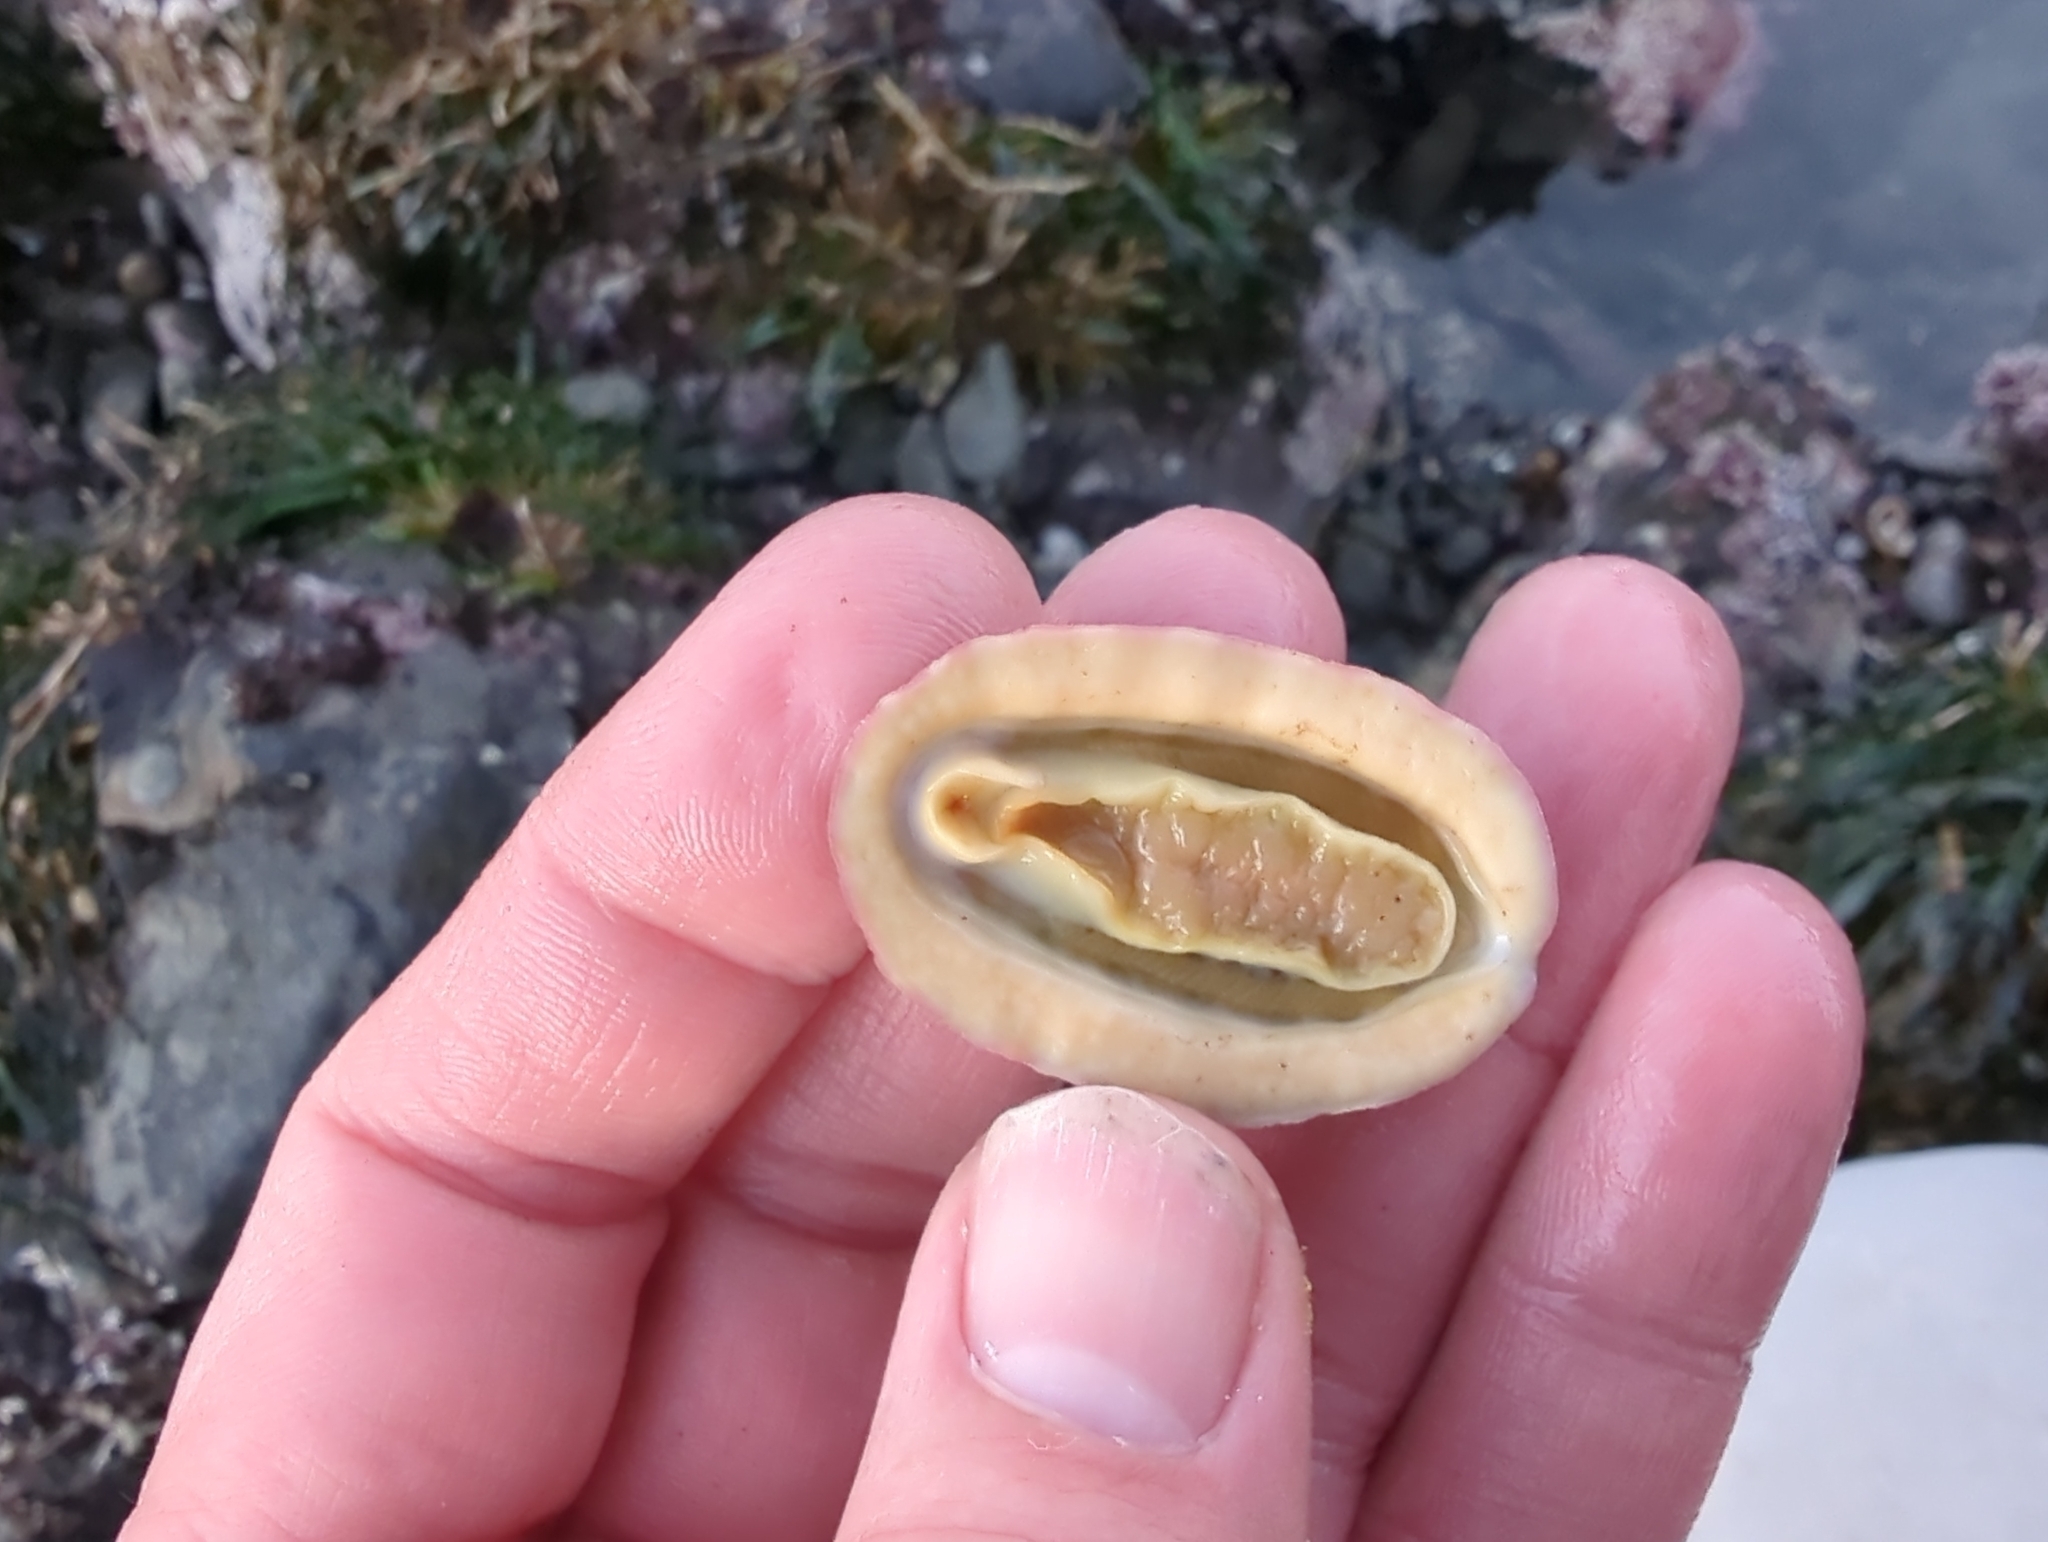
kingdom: Animalia
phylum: Mollusca
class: Polyplacophora
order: Chitonida
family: Tonicellidae
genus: Tonicella
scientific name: Tonicella lokii
